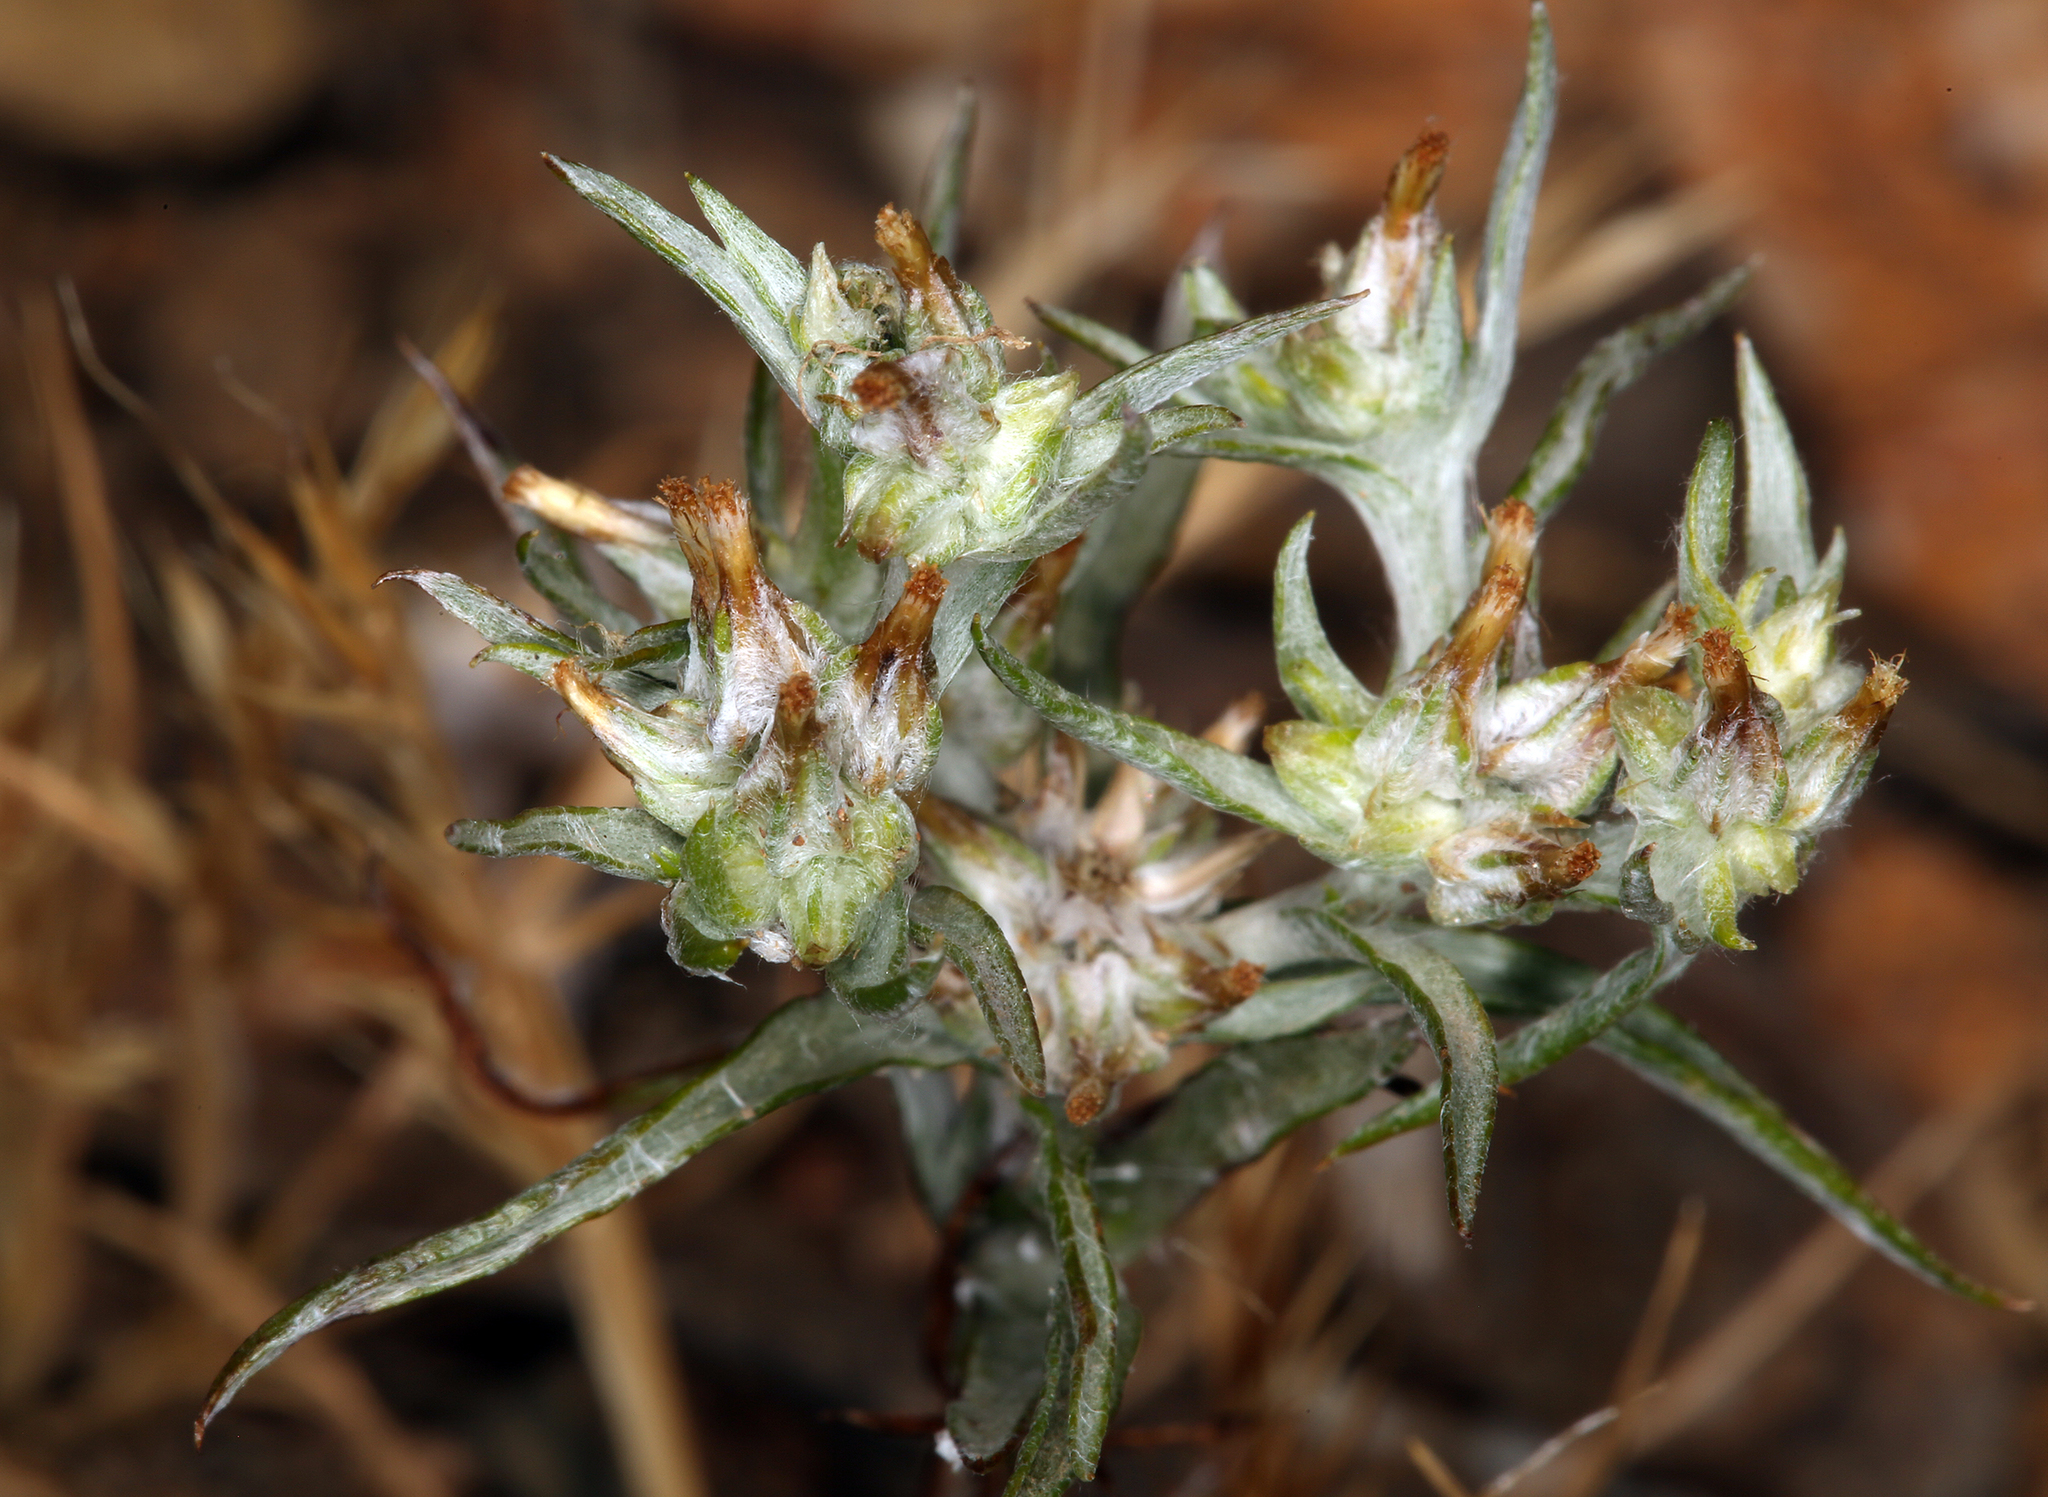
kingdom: Plantae
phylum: Tracheophyta
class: Magnoliopsida
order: Asterales
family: Asteraceae
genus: Logfia
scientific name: Logfia gallica
